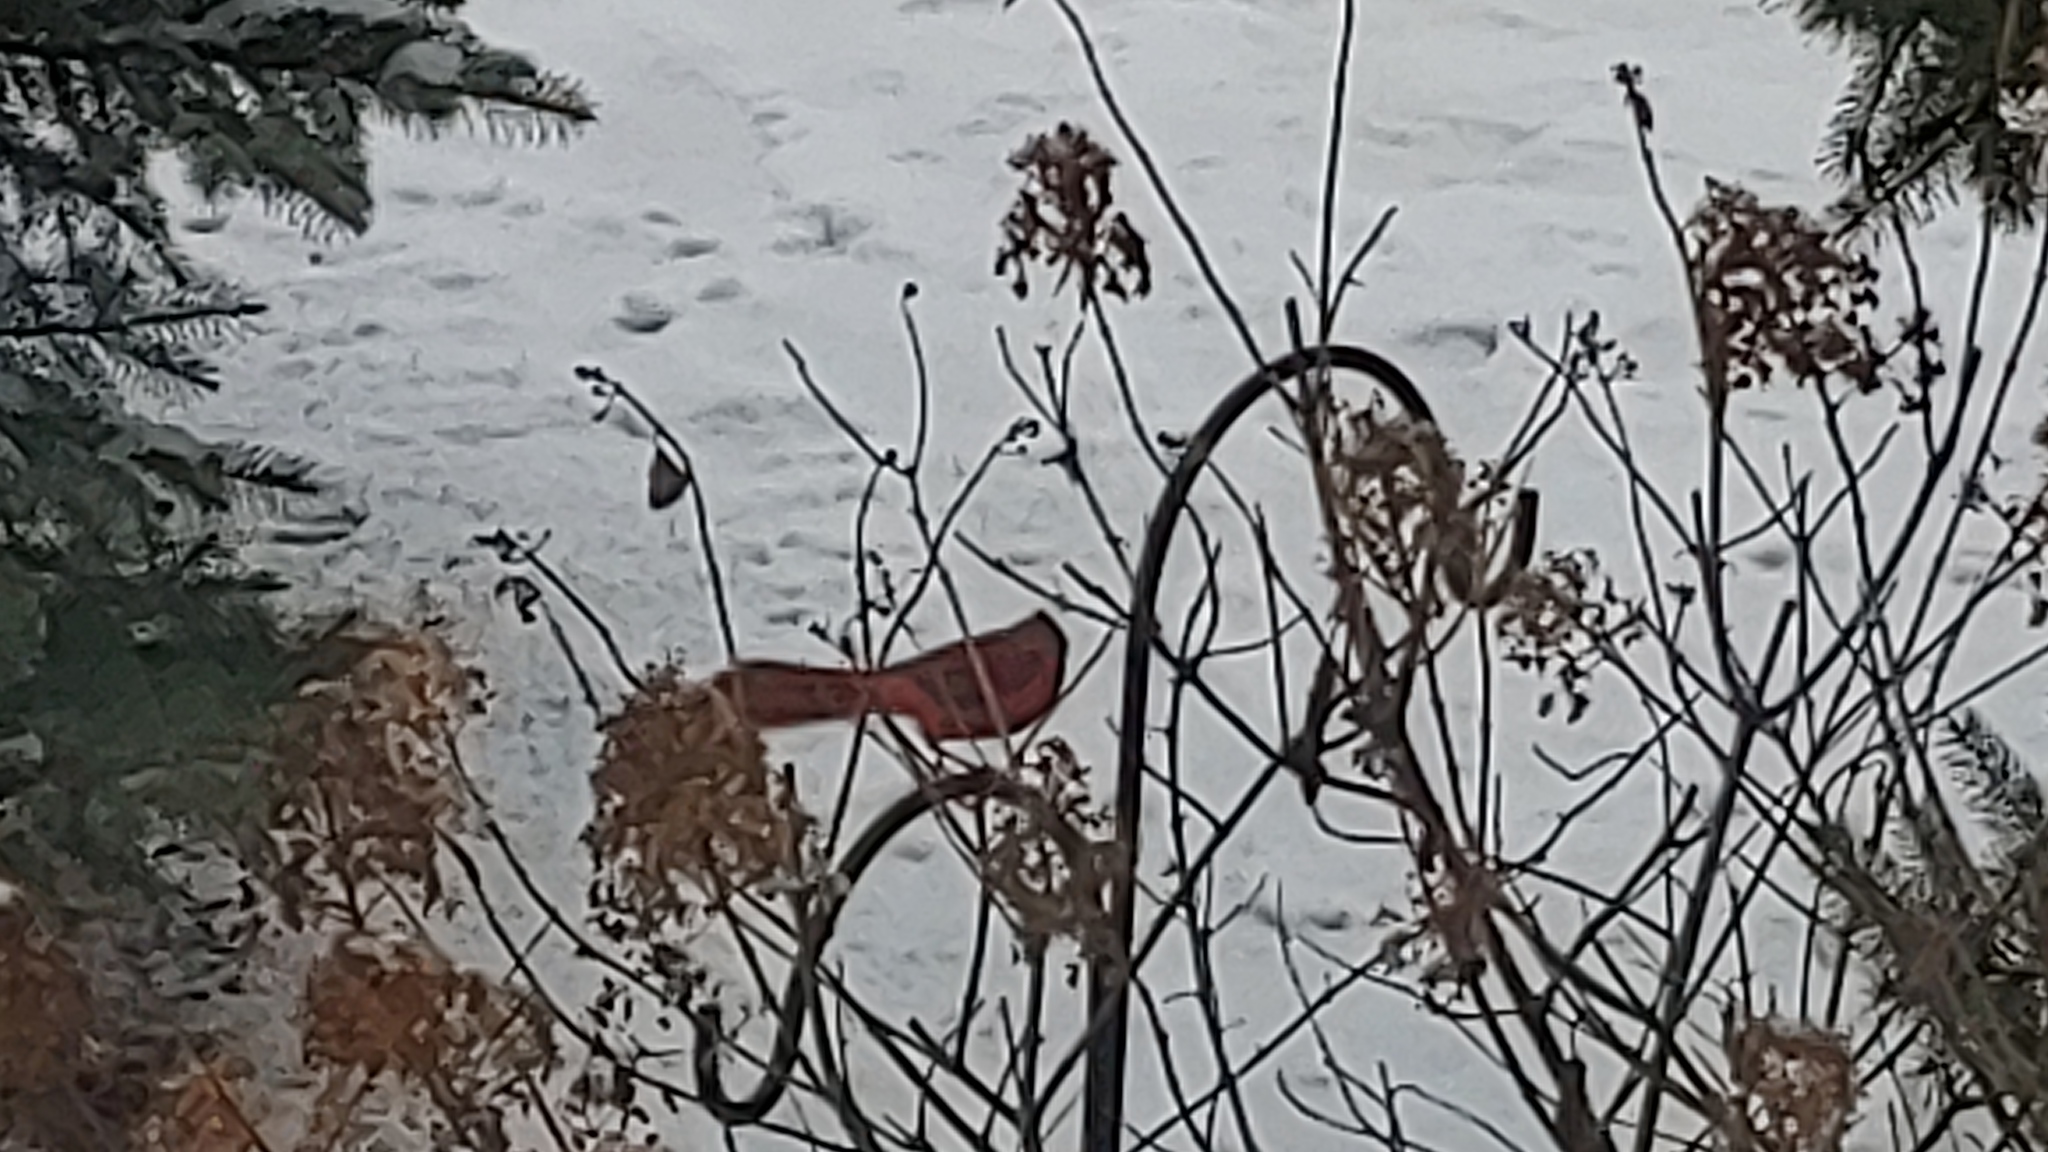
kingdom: Animalia
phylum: Chordata
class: Aves
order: Passeriformes
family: Cardinalidae
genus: Cardinalis
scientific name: Cardinalis cardinalis
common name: Northern cardinal
